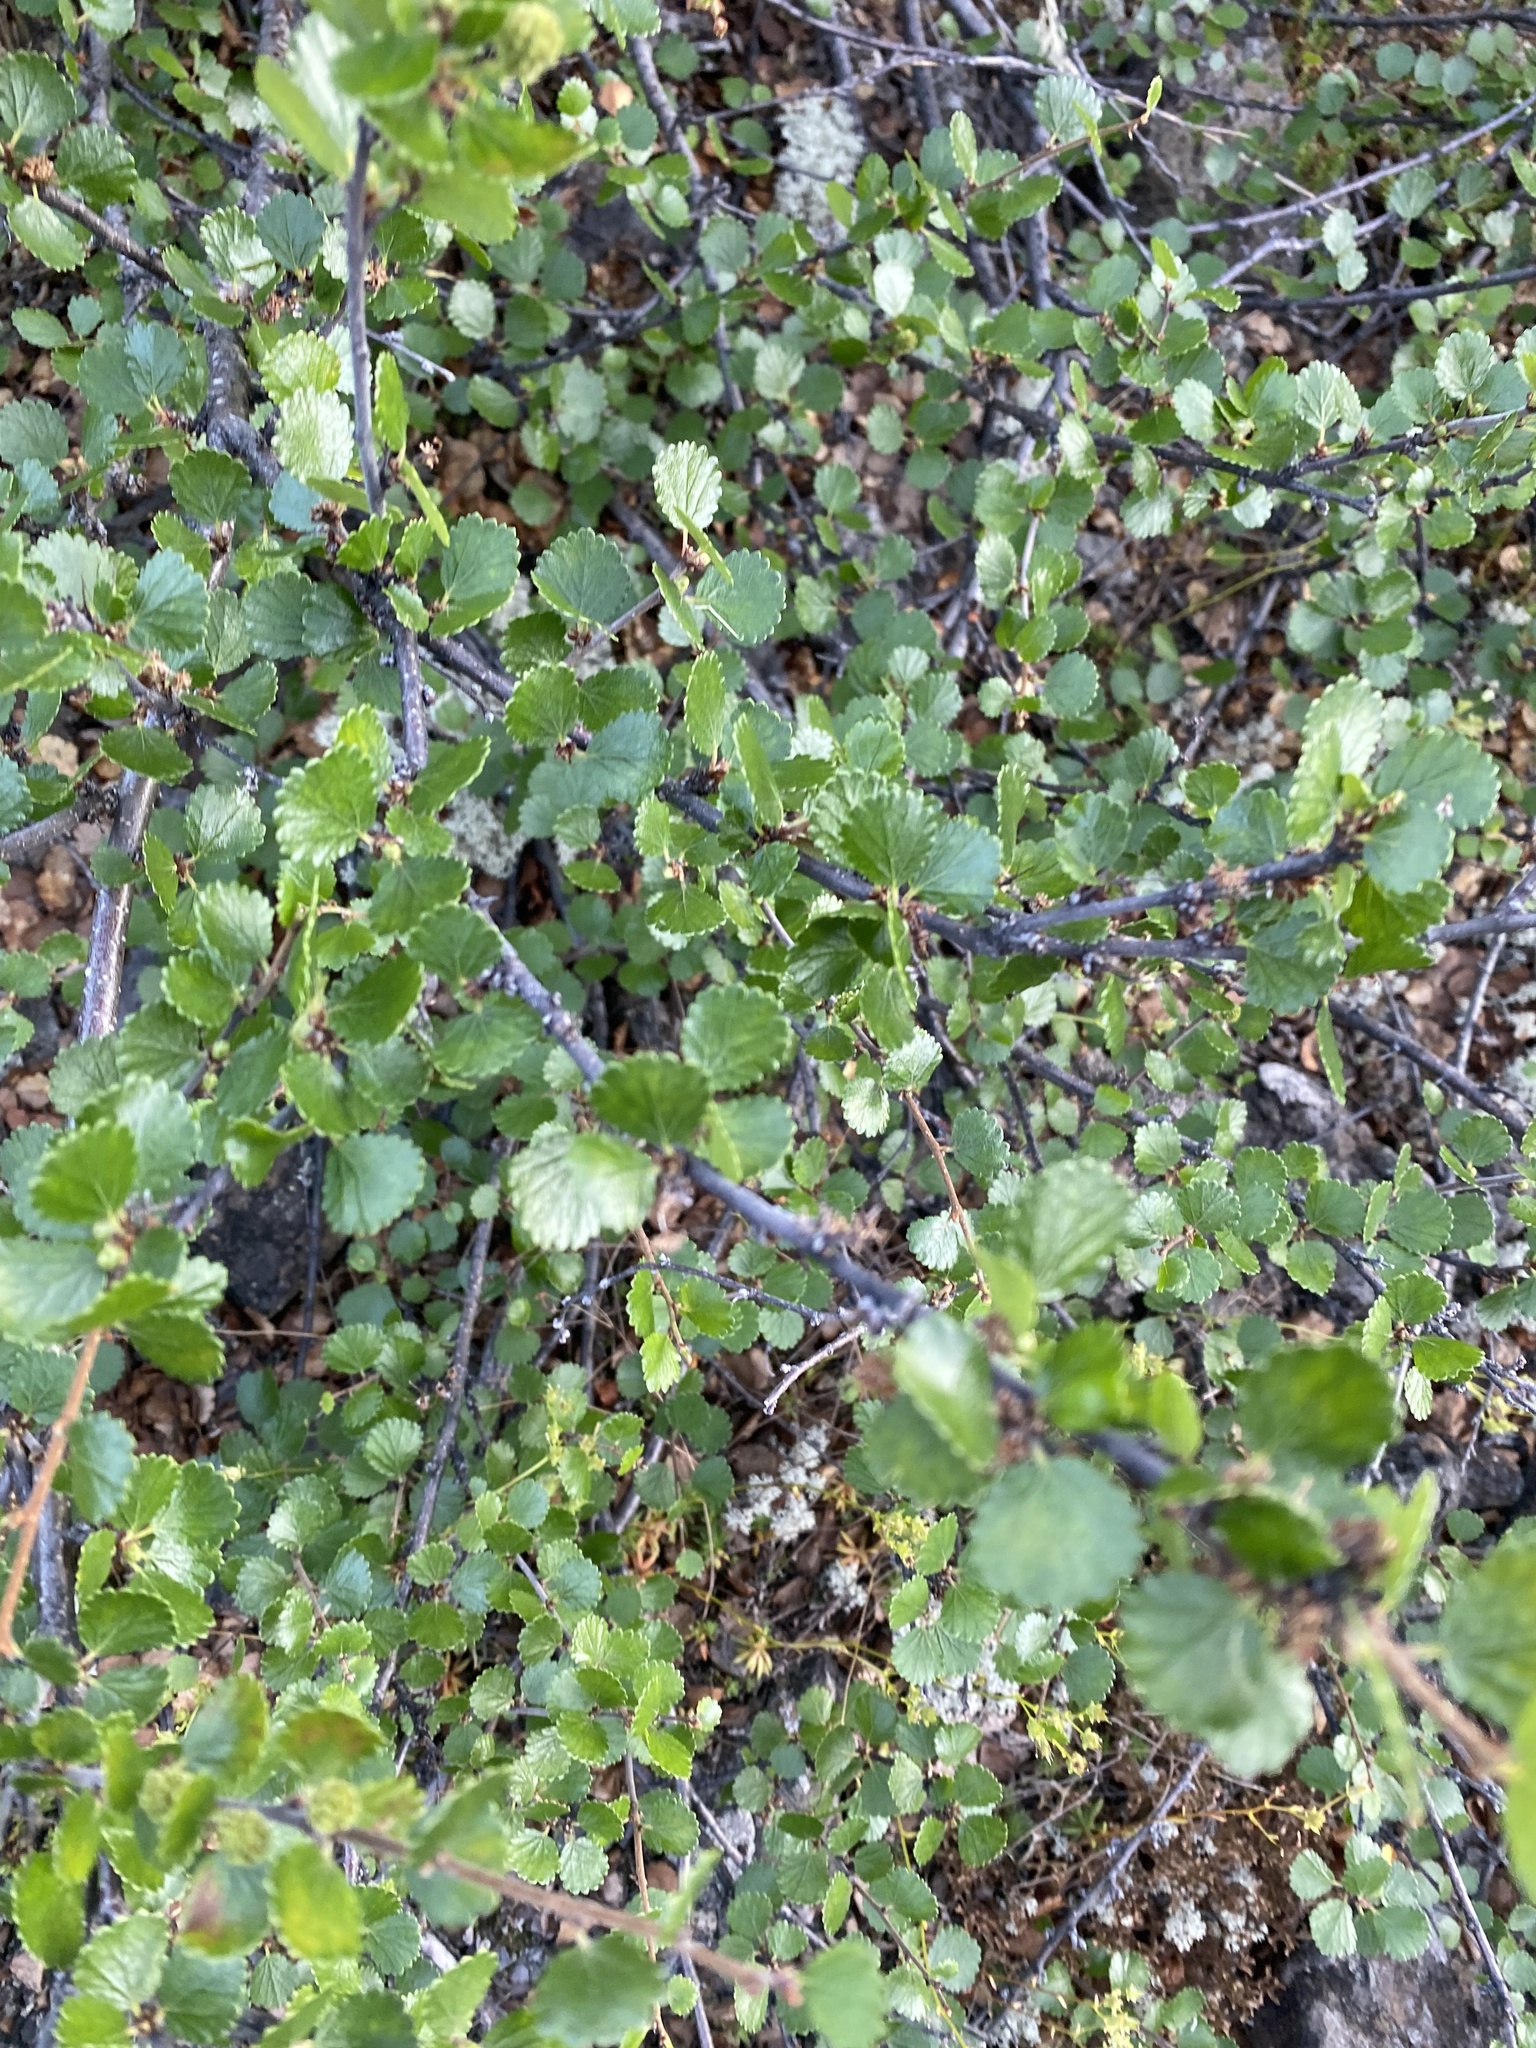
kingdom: Plantae
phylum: Tracheophyta
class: Magnoliopsida
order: Fagales
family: Betulaceae
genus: Betula
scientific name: Betula nana
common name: Arctic dwarf birch
